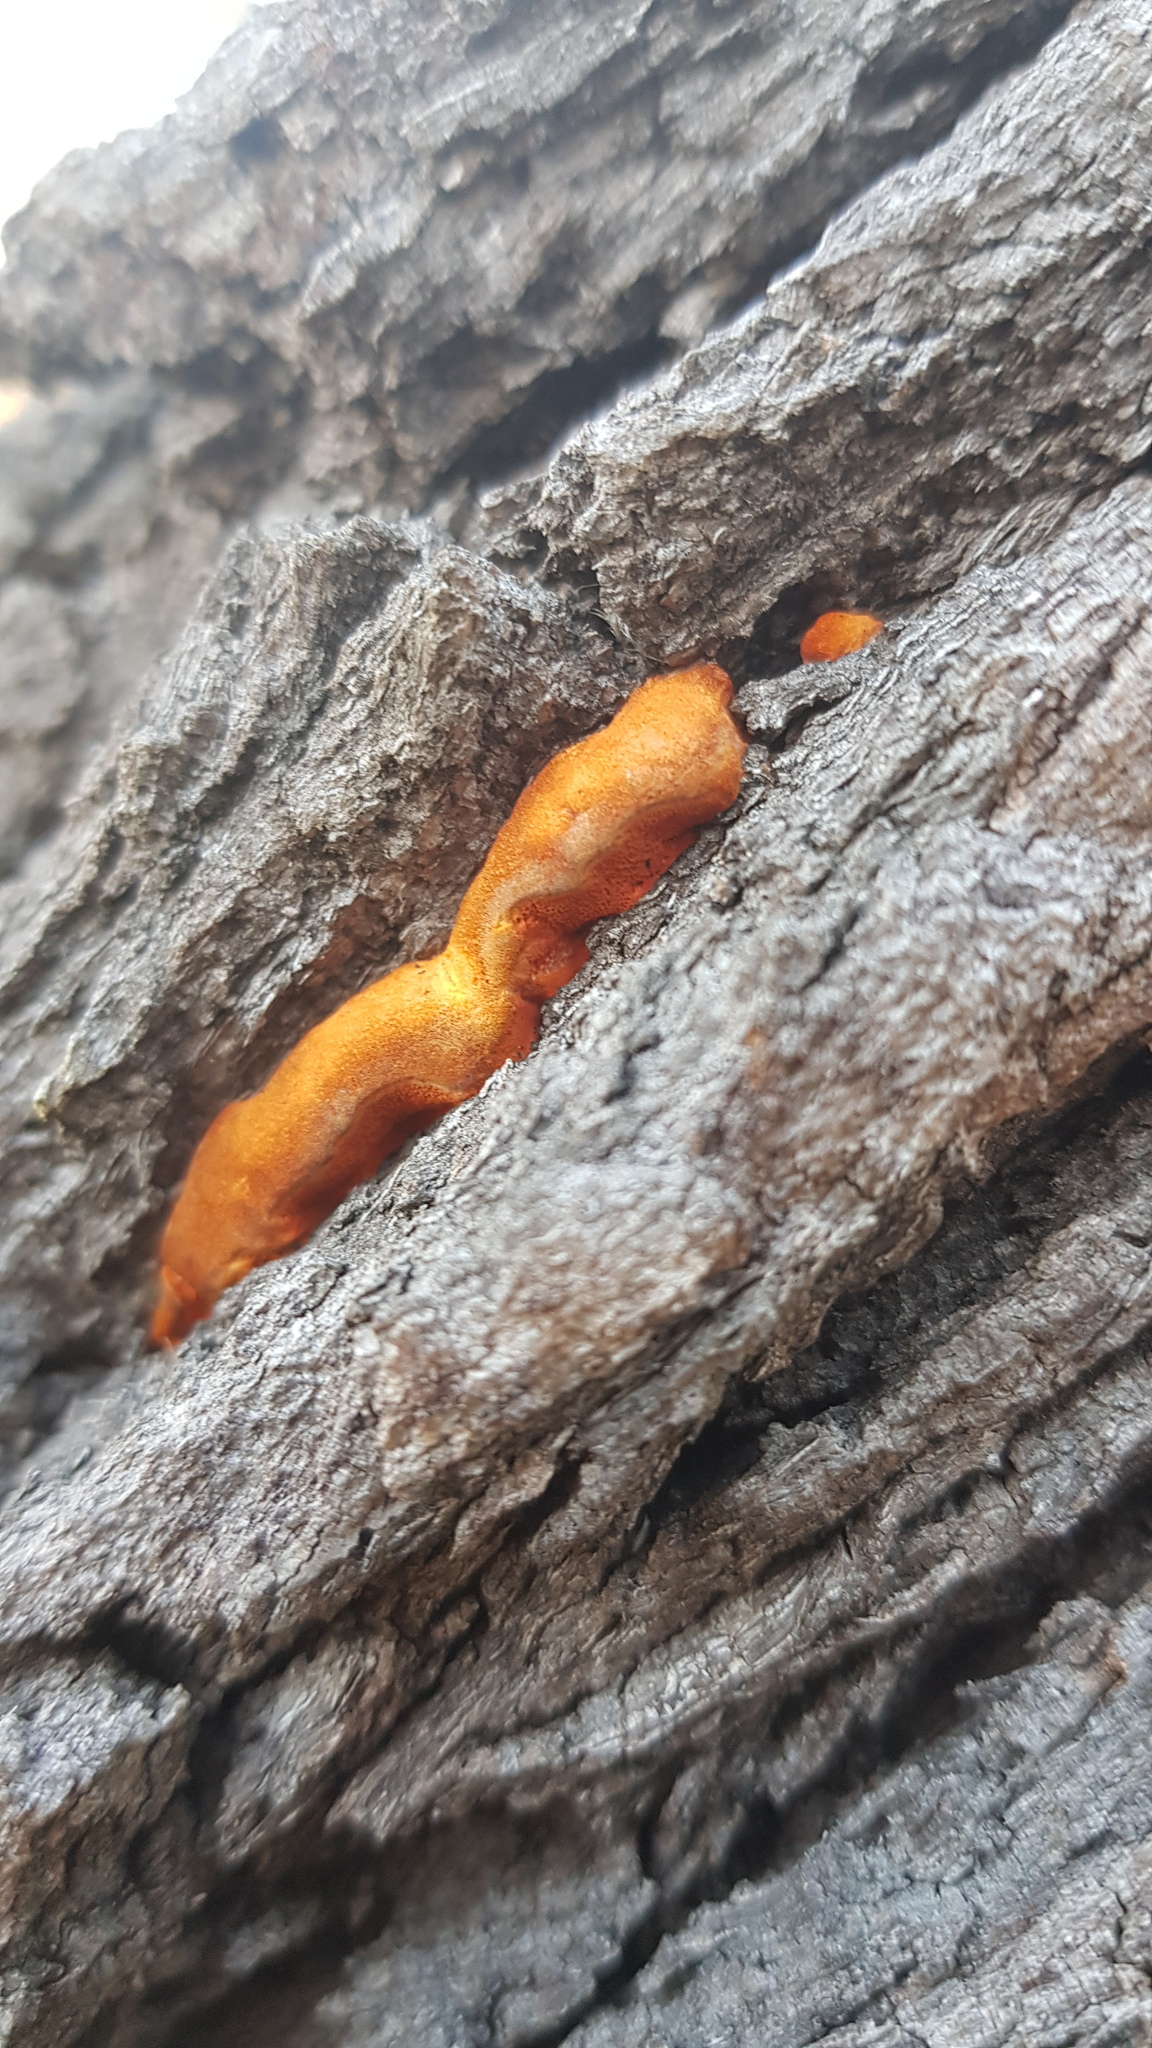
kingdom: Fungi
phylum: Basidiomycota
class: Agaricomycetes
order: Polyporales
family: Polyporaceae
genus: Trametes
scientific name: Trametes coccinea
